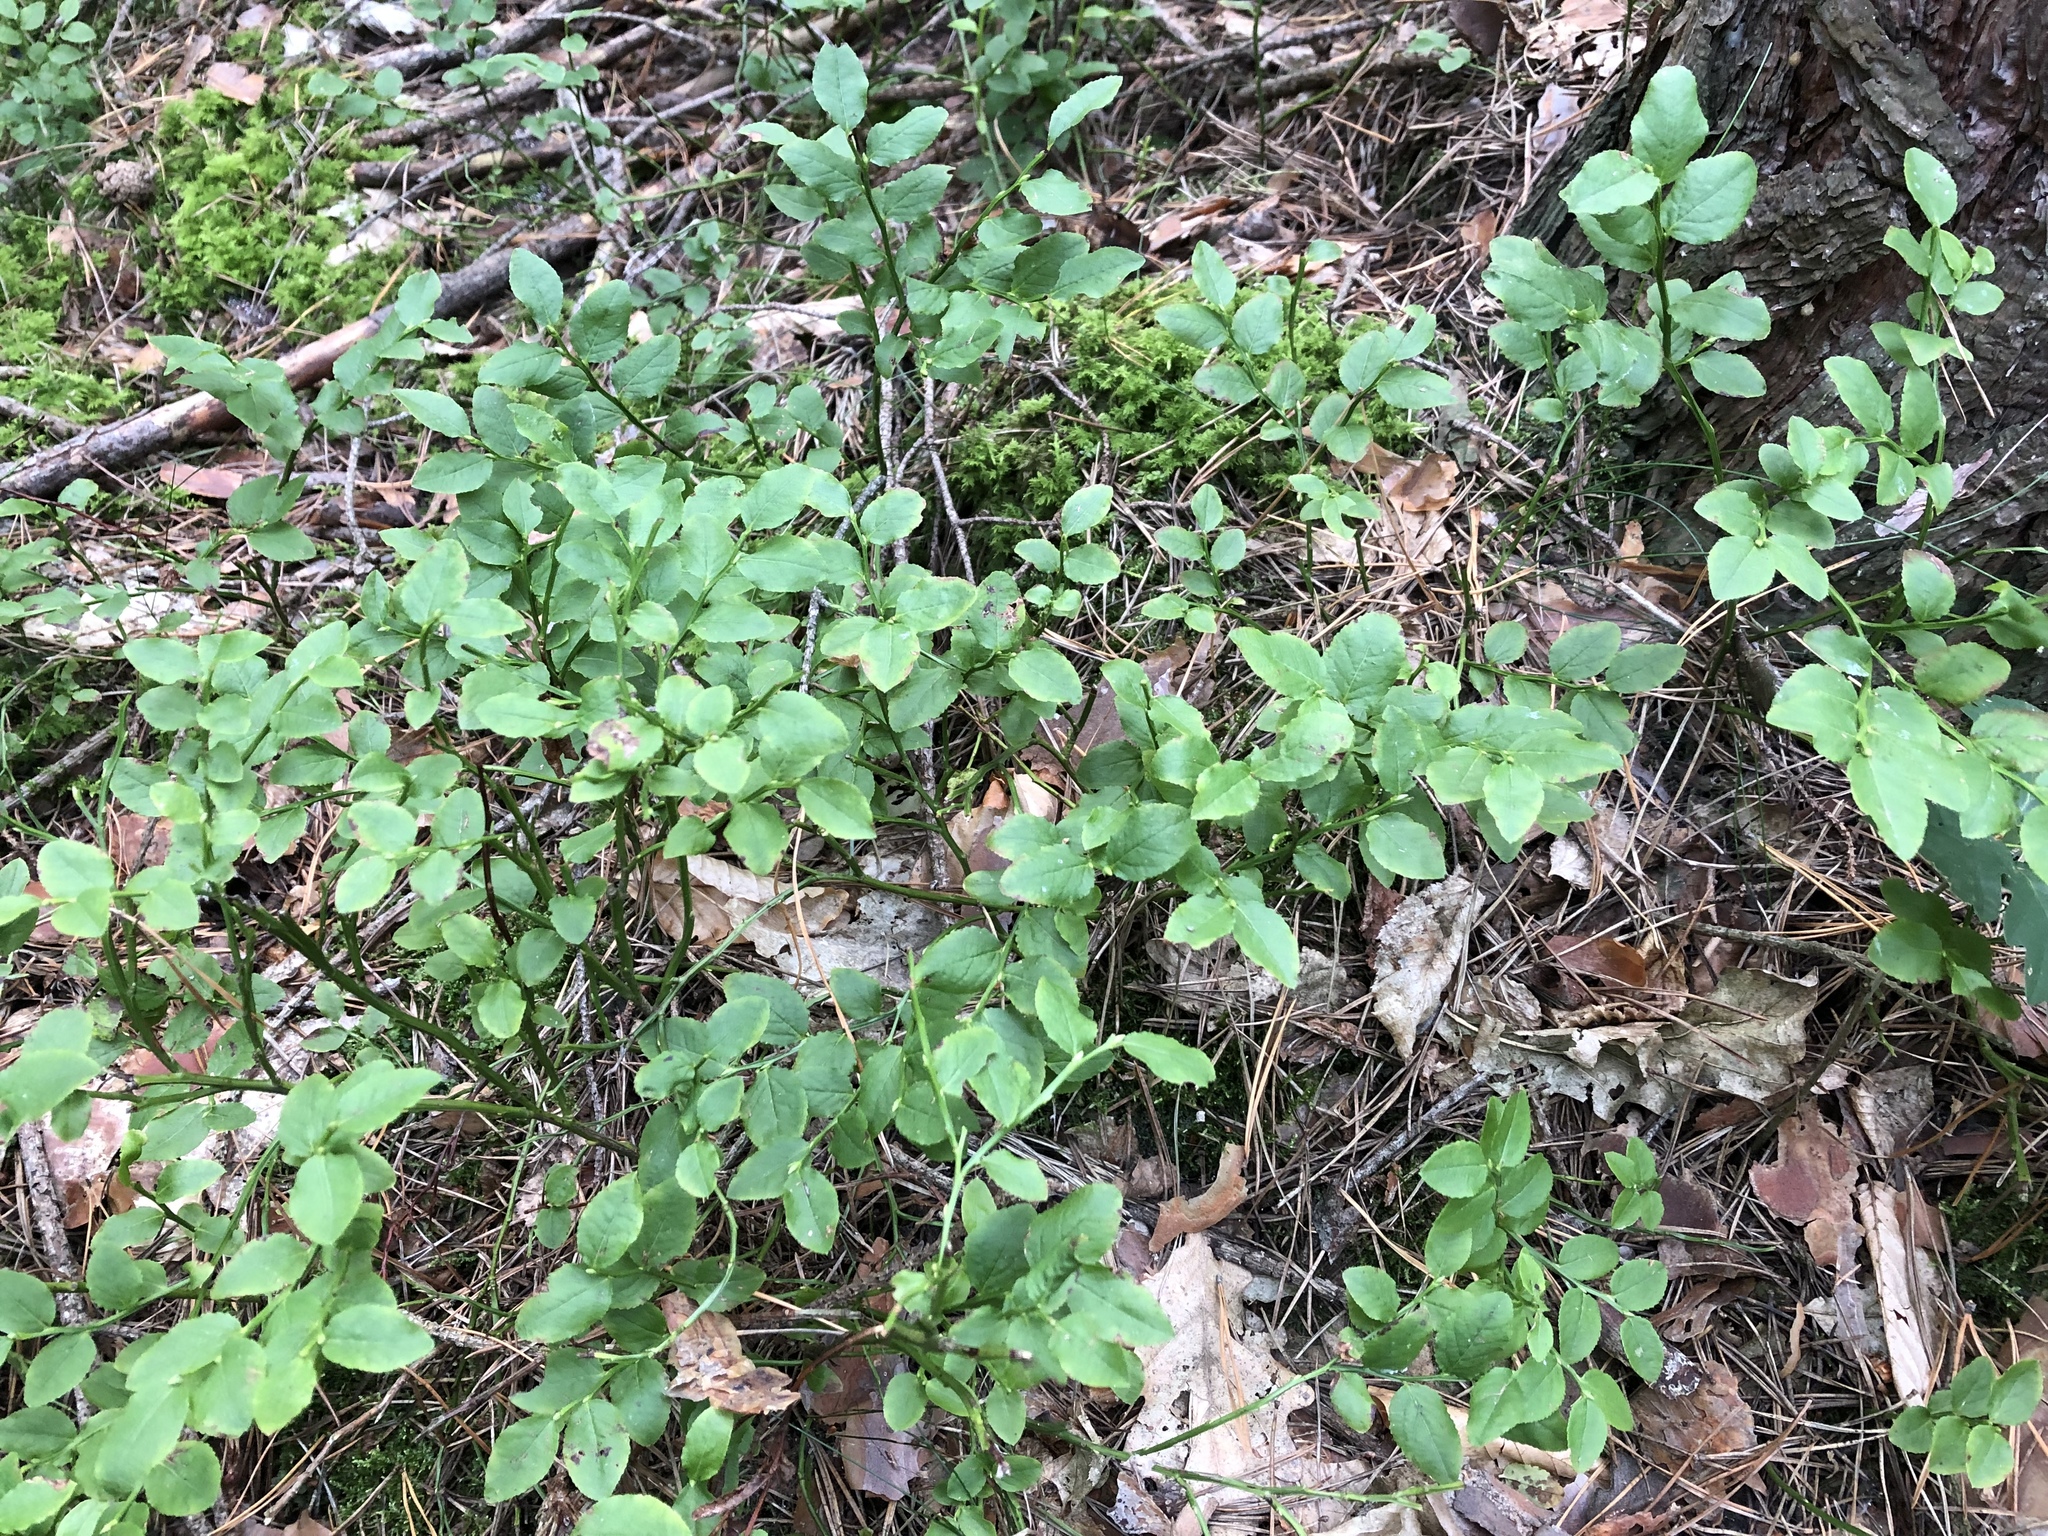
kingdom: Plantae
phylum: Tracheophyta
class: Magnoliopsida
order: Ericales
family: Ericaceae
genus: Vaccinium
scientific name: Vaccinium myrtillus
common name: Bilberry
